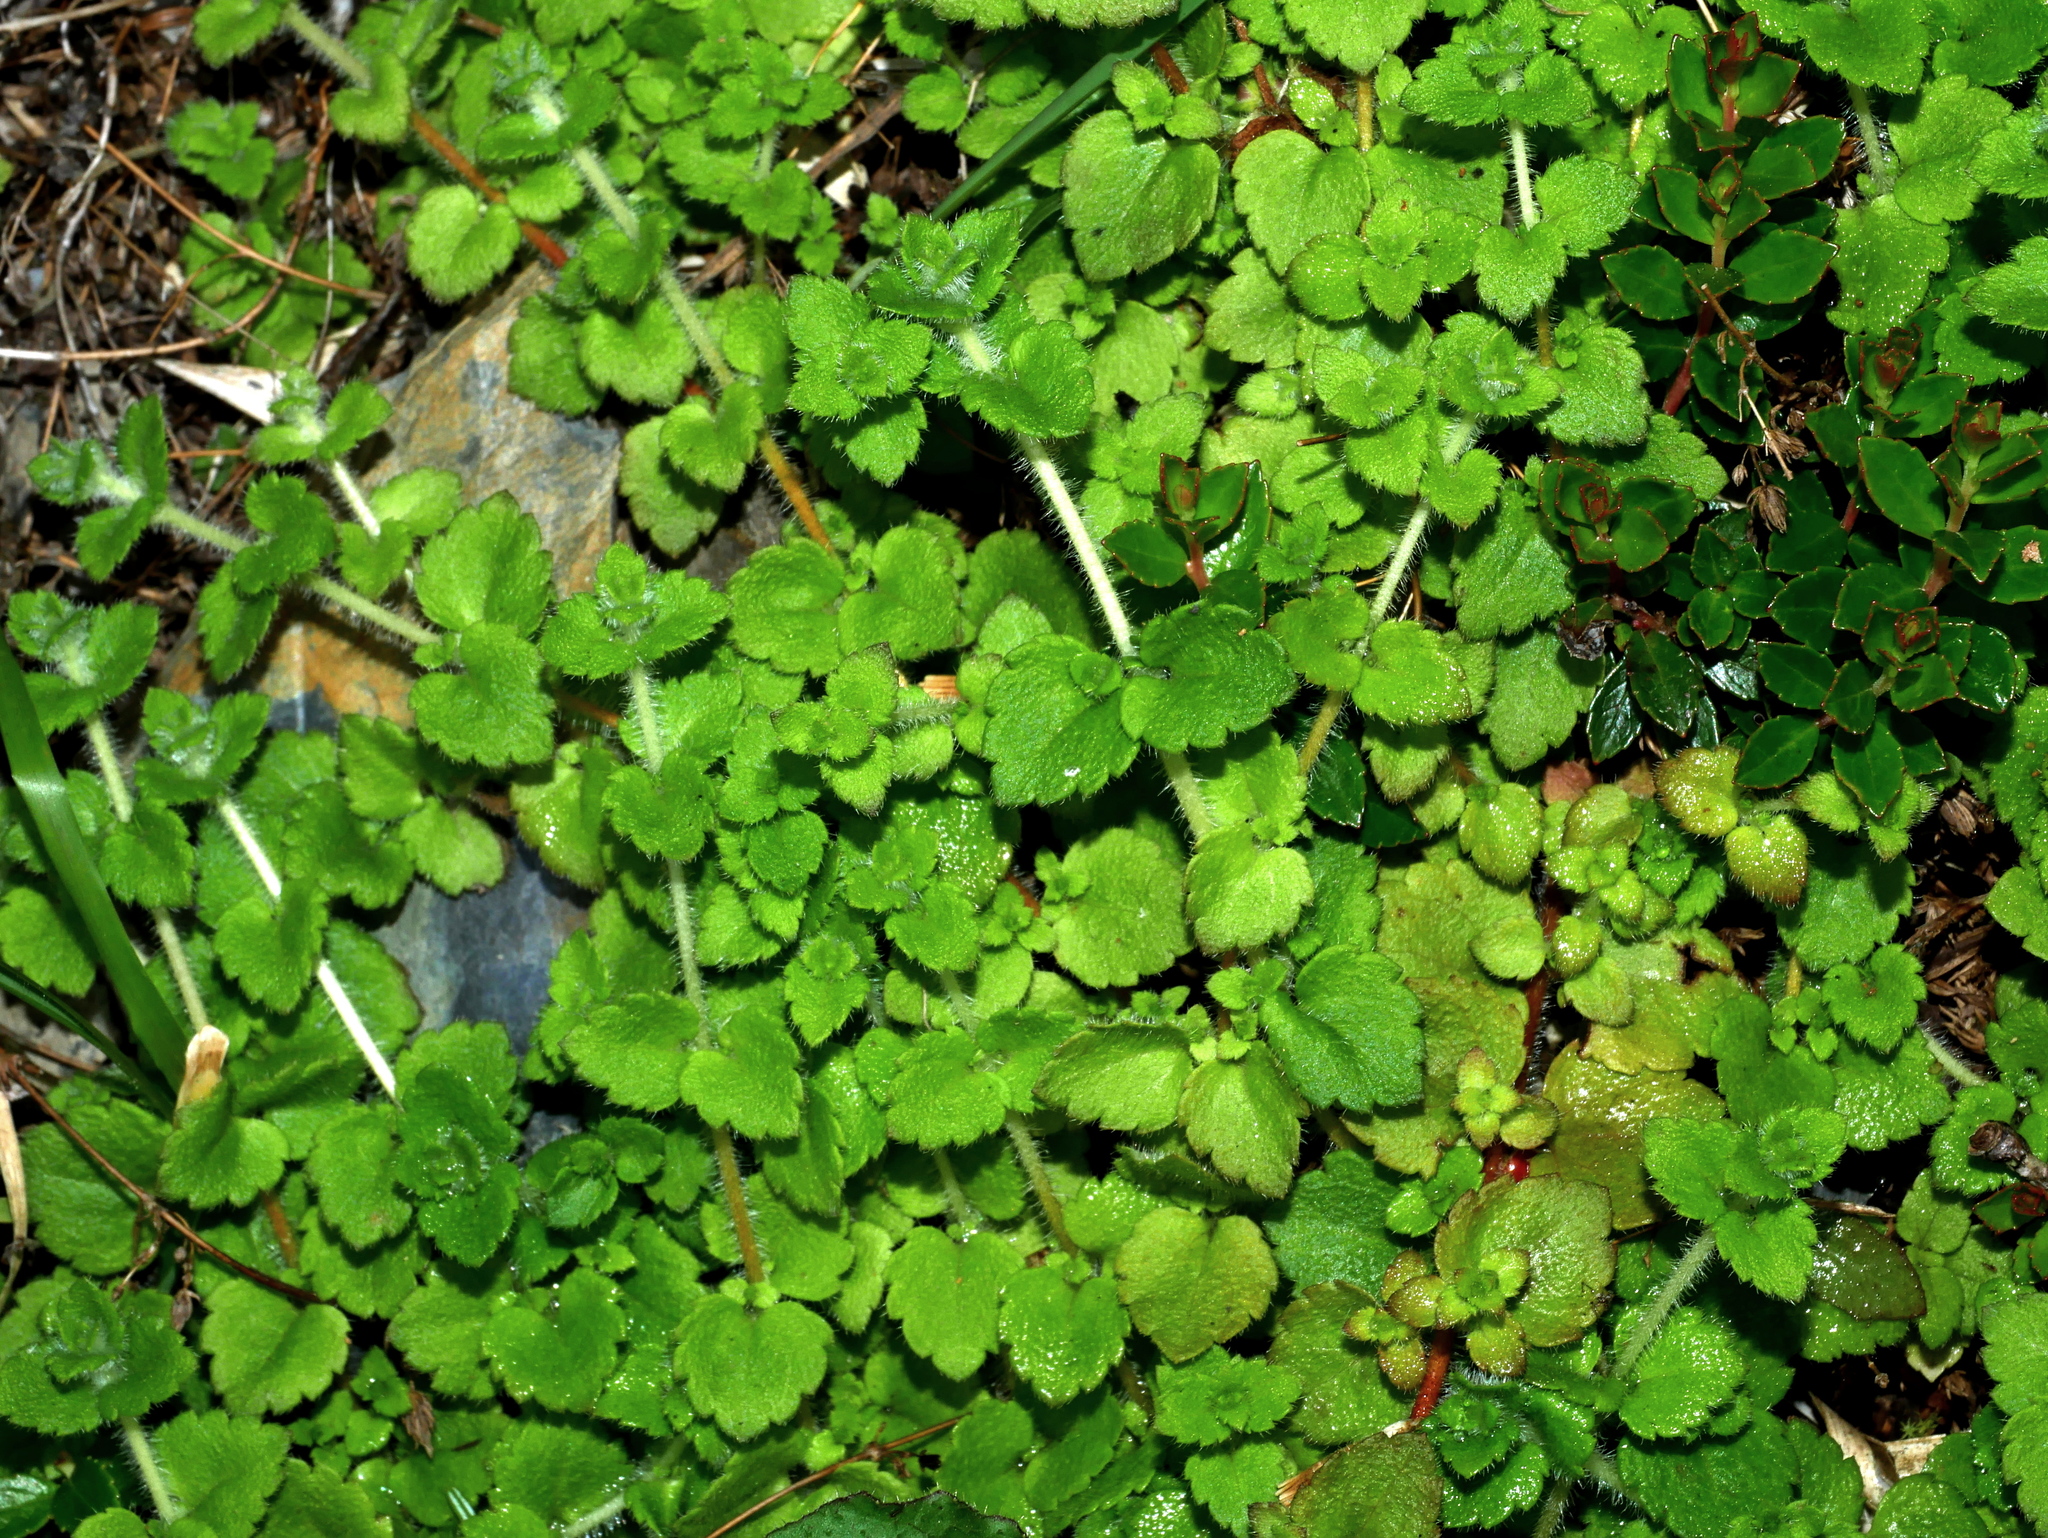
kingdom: Plantae
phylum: Tracheophyta
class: Magnoliopsida
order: Lamiales
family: Plantaginaceae
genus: Hemiphragma
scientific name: Hemiphragma heterophyllum
